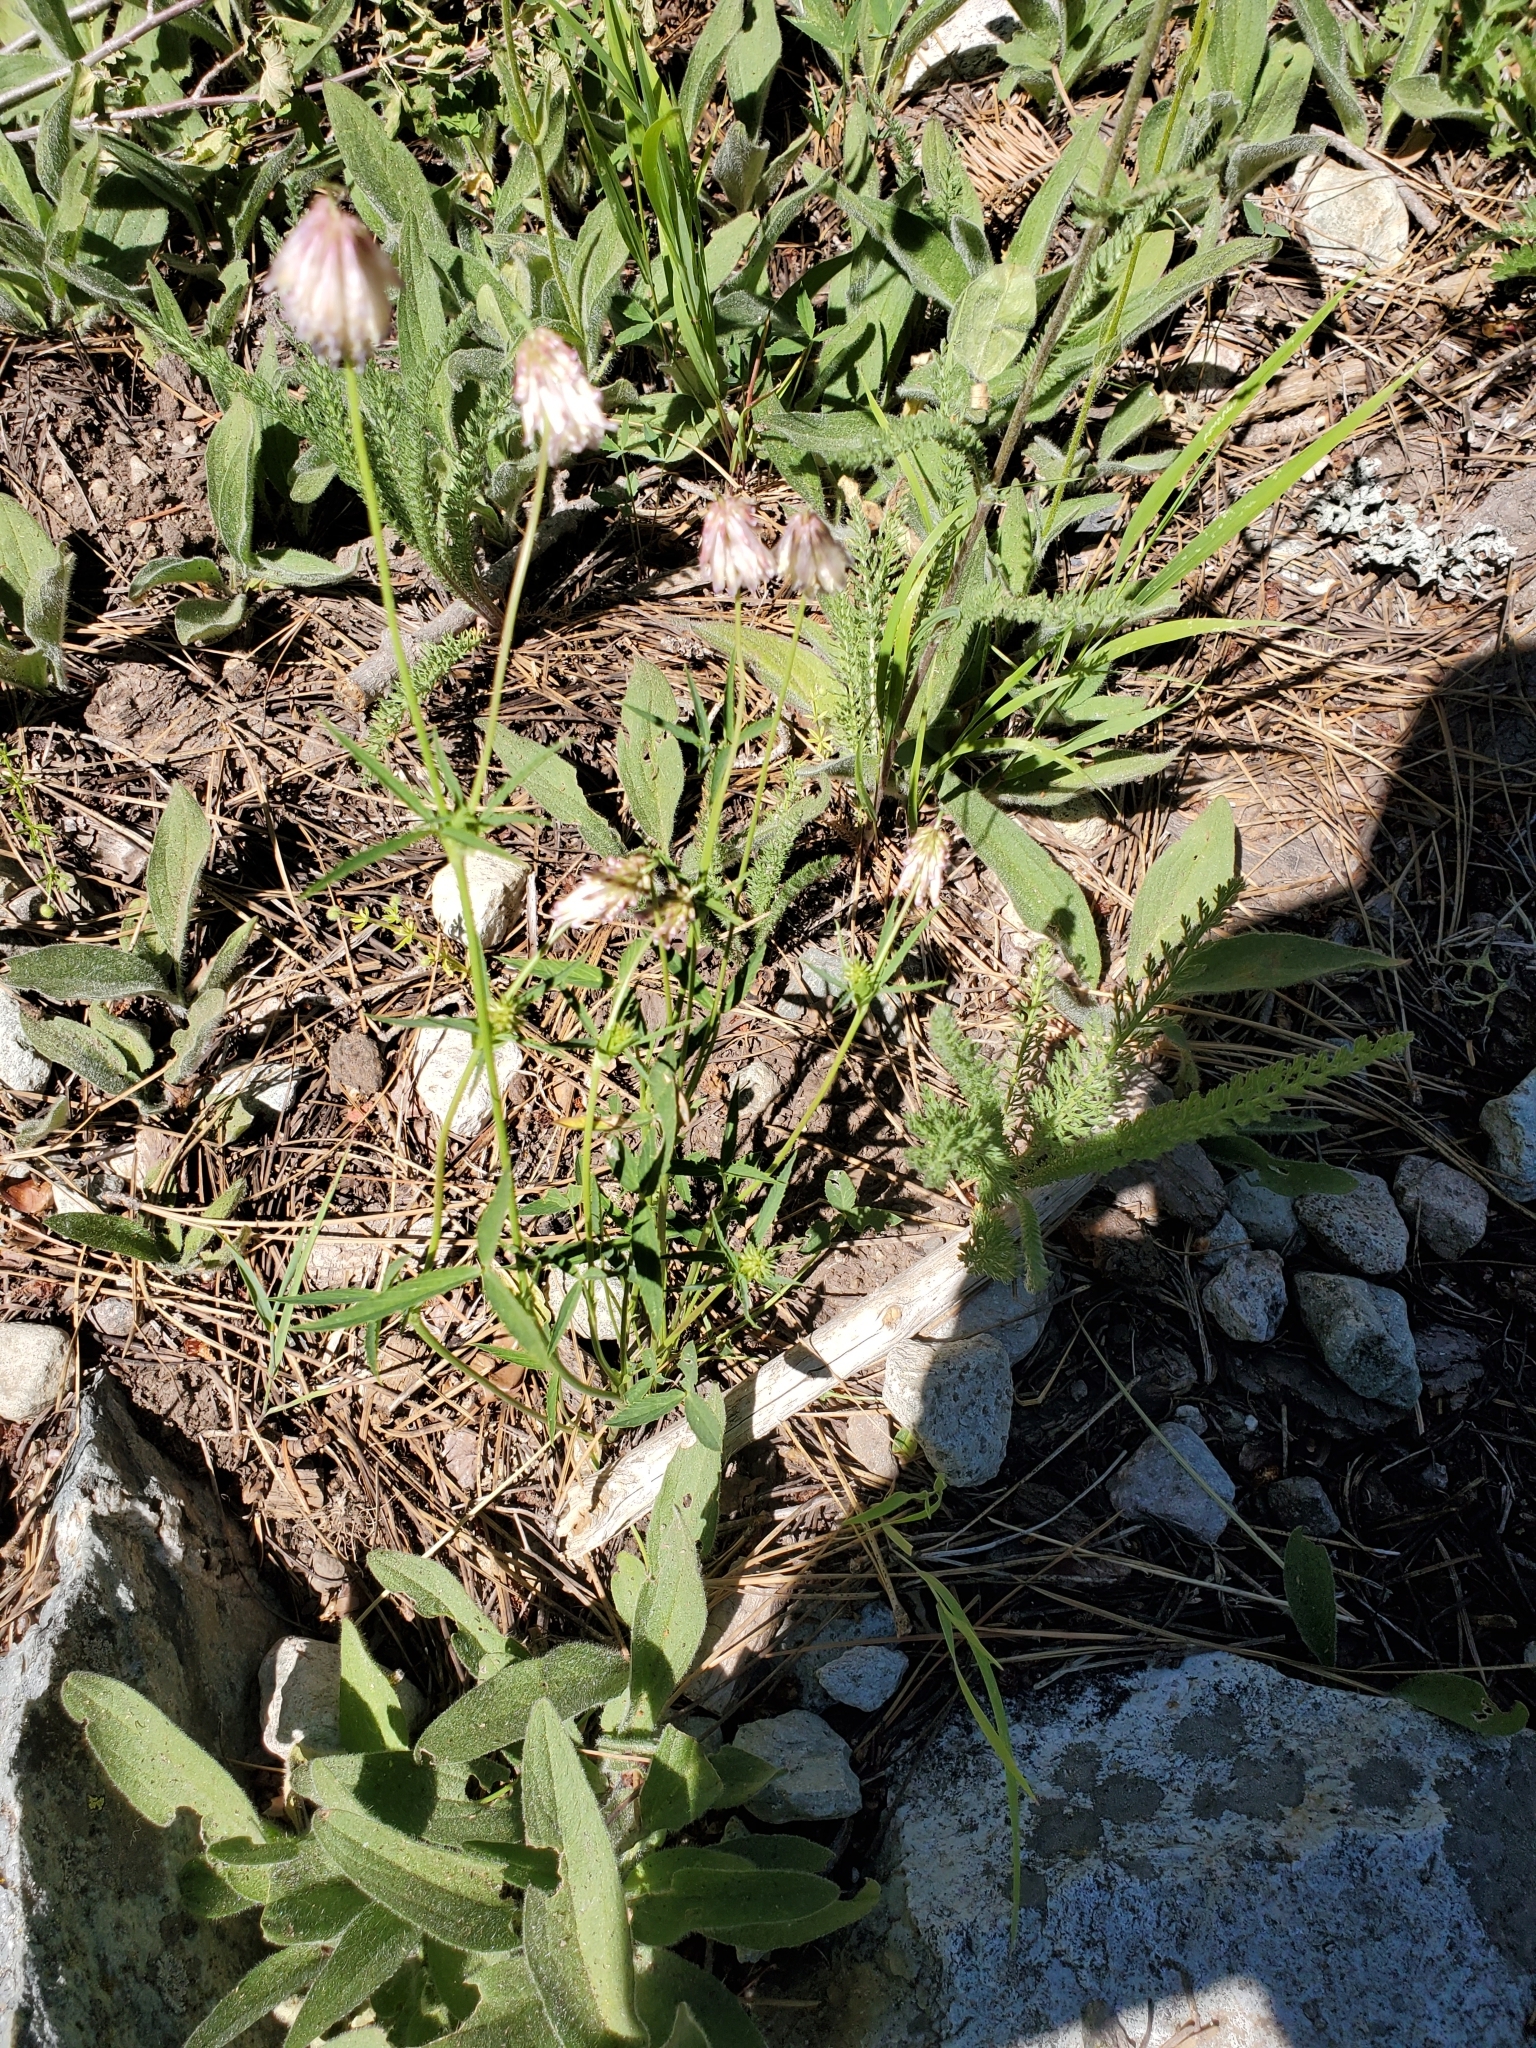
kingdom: Plantae
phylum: Tracheophyta
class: Magnoliopsida
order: Fabales
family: Fabaceae
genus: Trifolium
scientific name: Trifolium productum
